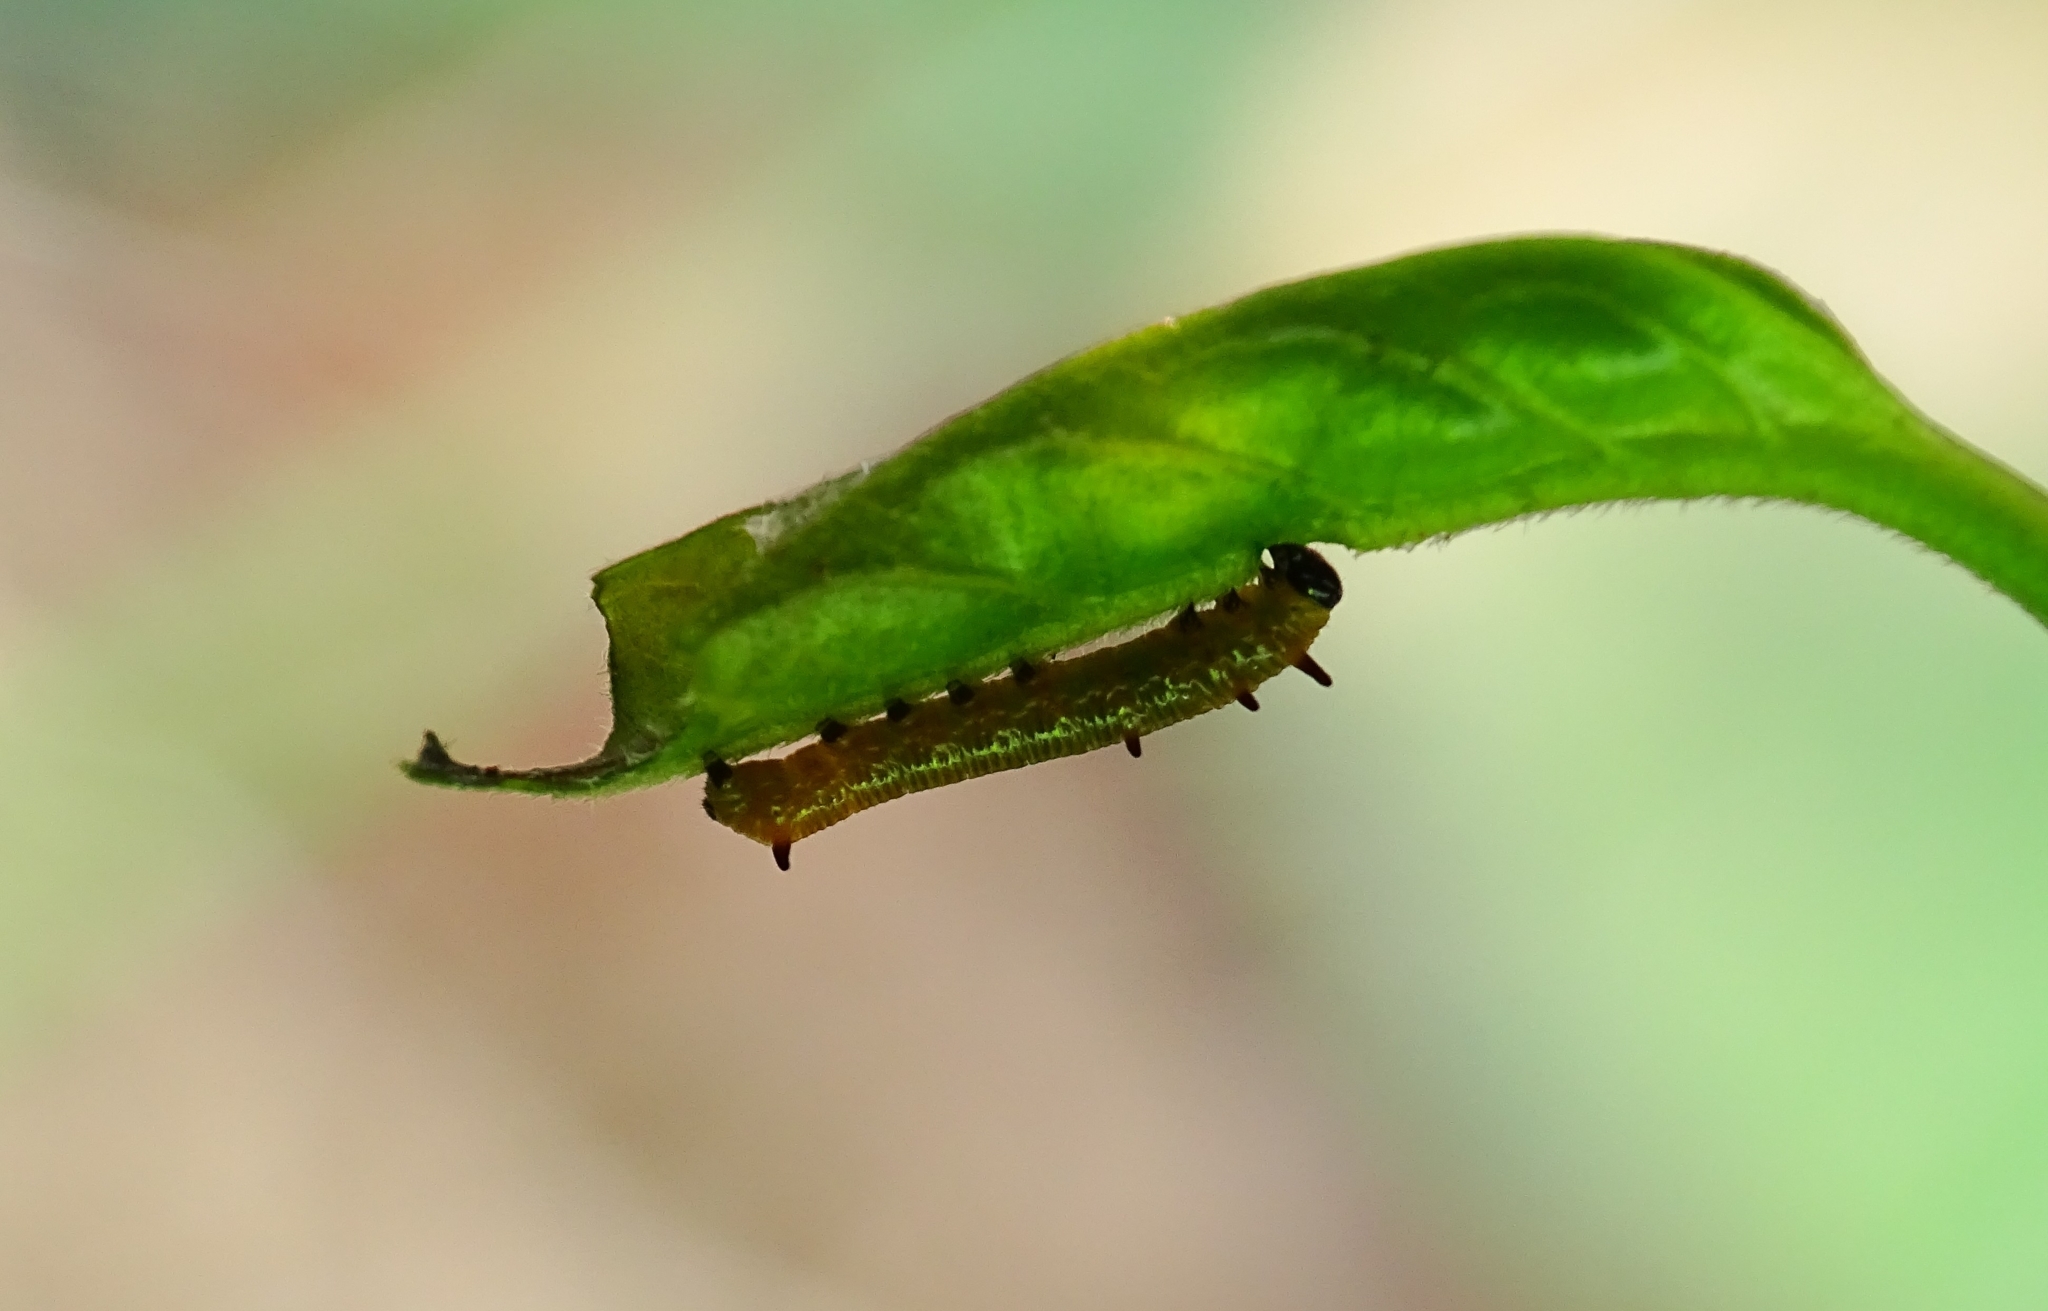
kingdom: Animalia
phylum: Arthropoda
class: Insecta
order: Lepidoptera
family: Nymphalidae
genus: Euploea
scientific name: Euploea core
